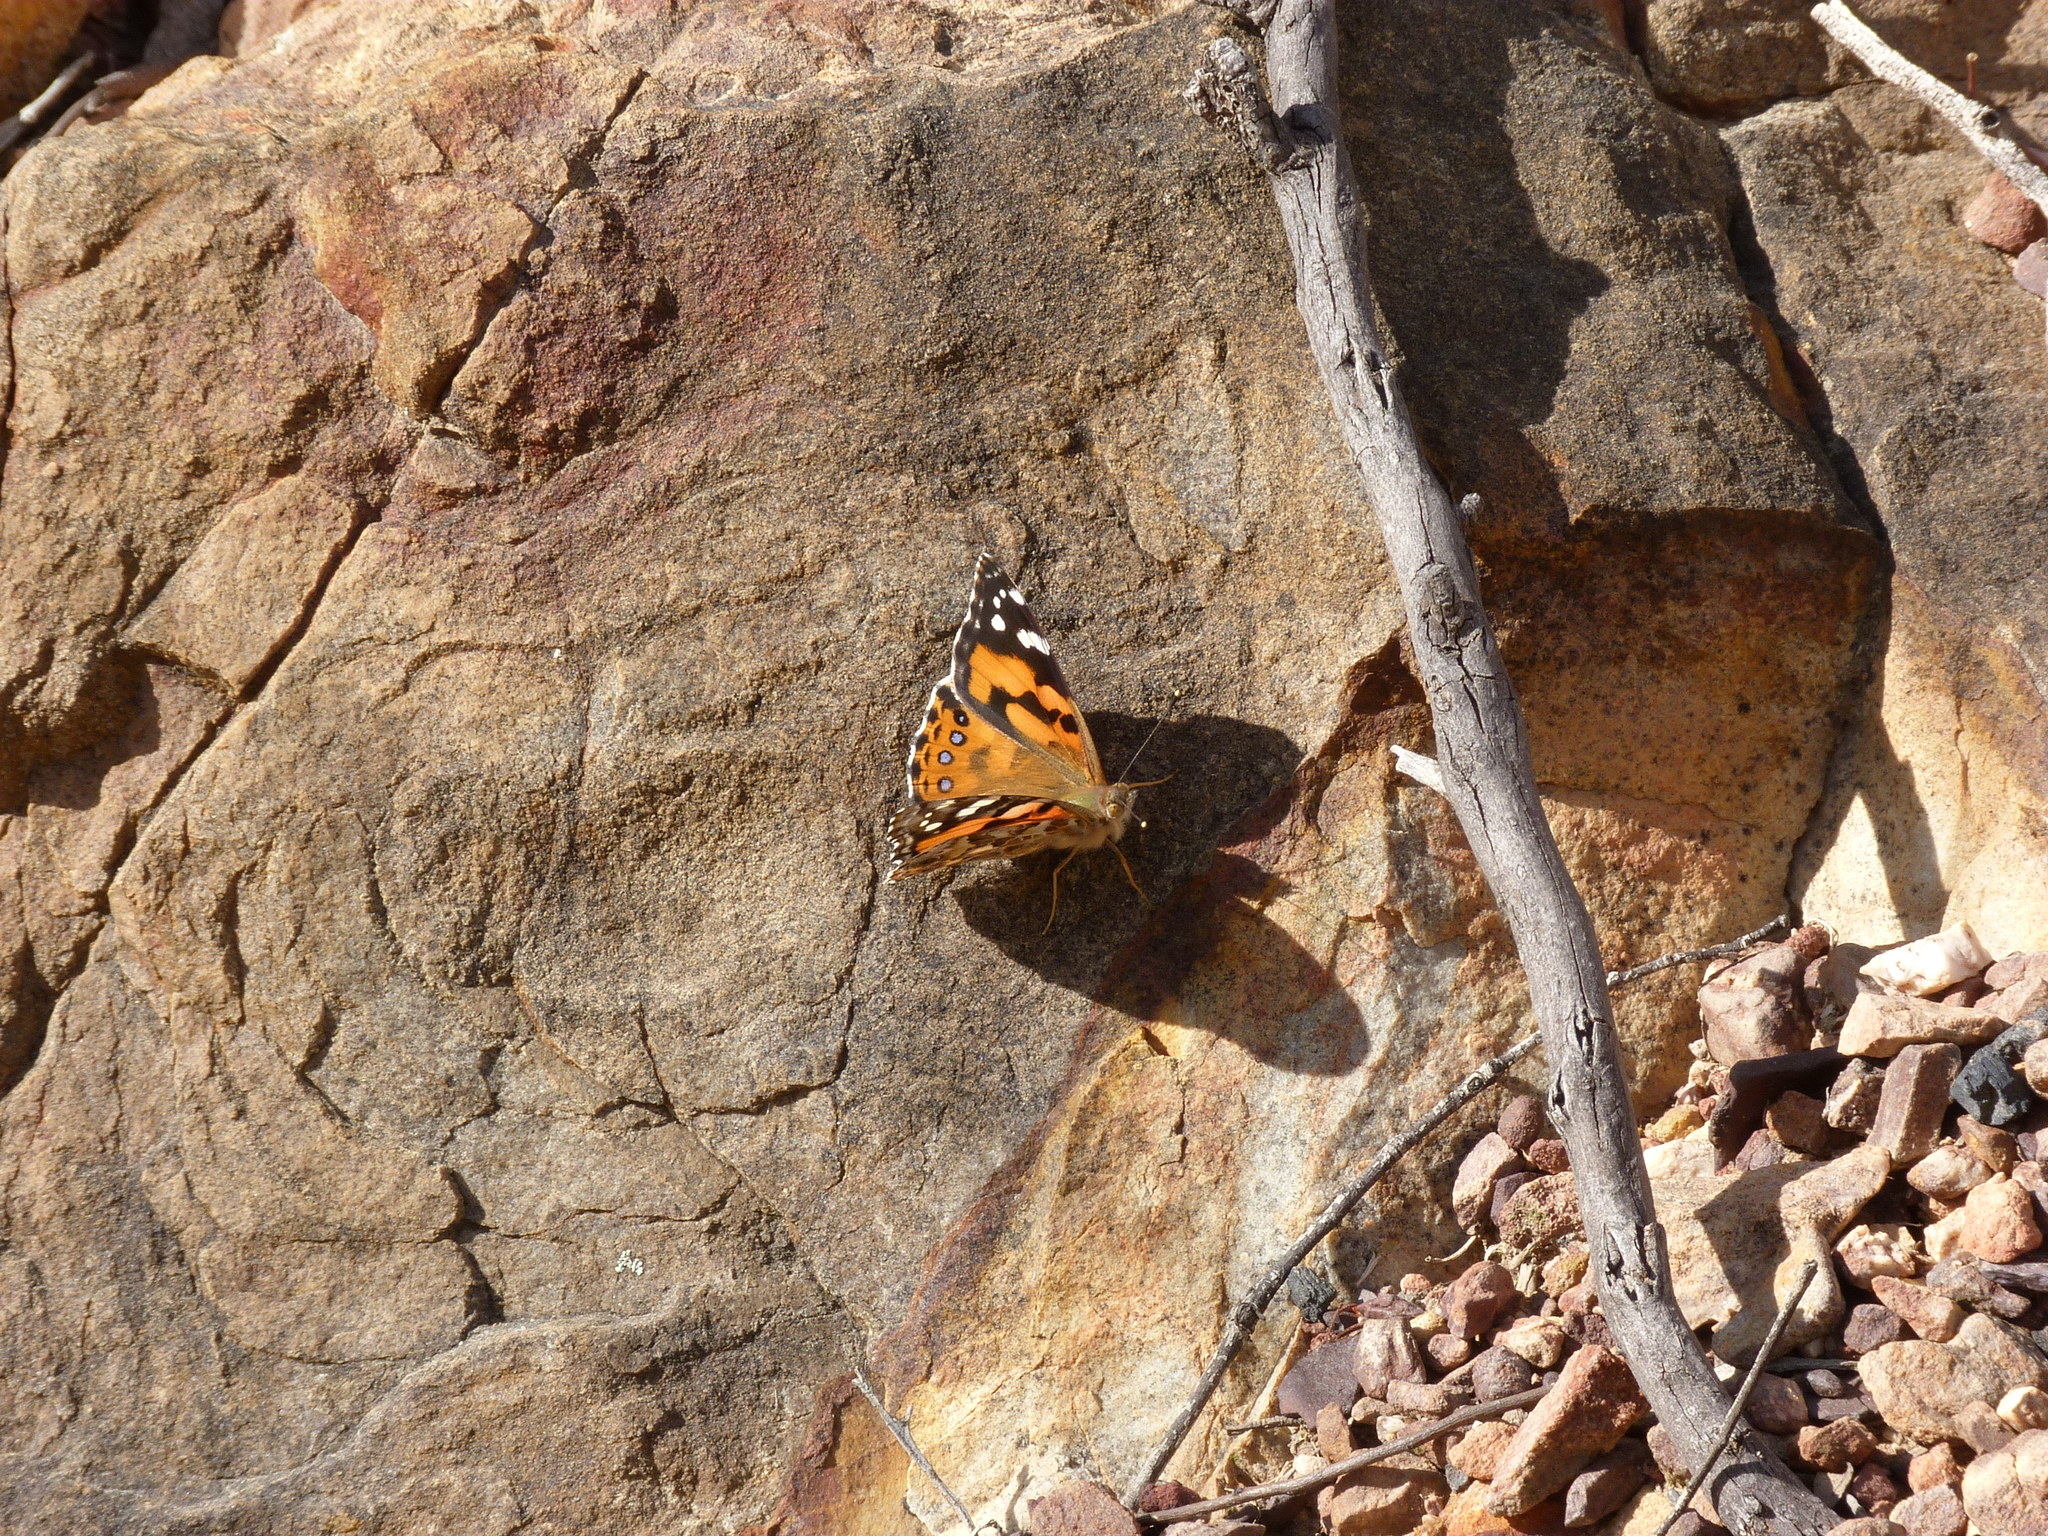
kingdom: Animalia
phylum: Arthropoda
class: Insecta
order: Lepidoptera
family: Nymphalidae
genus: Vanessa
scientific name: Vanessa kershawi
